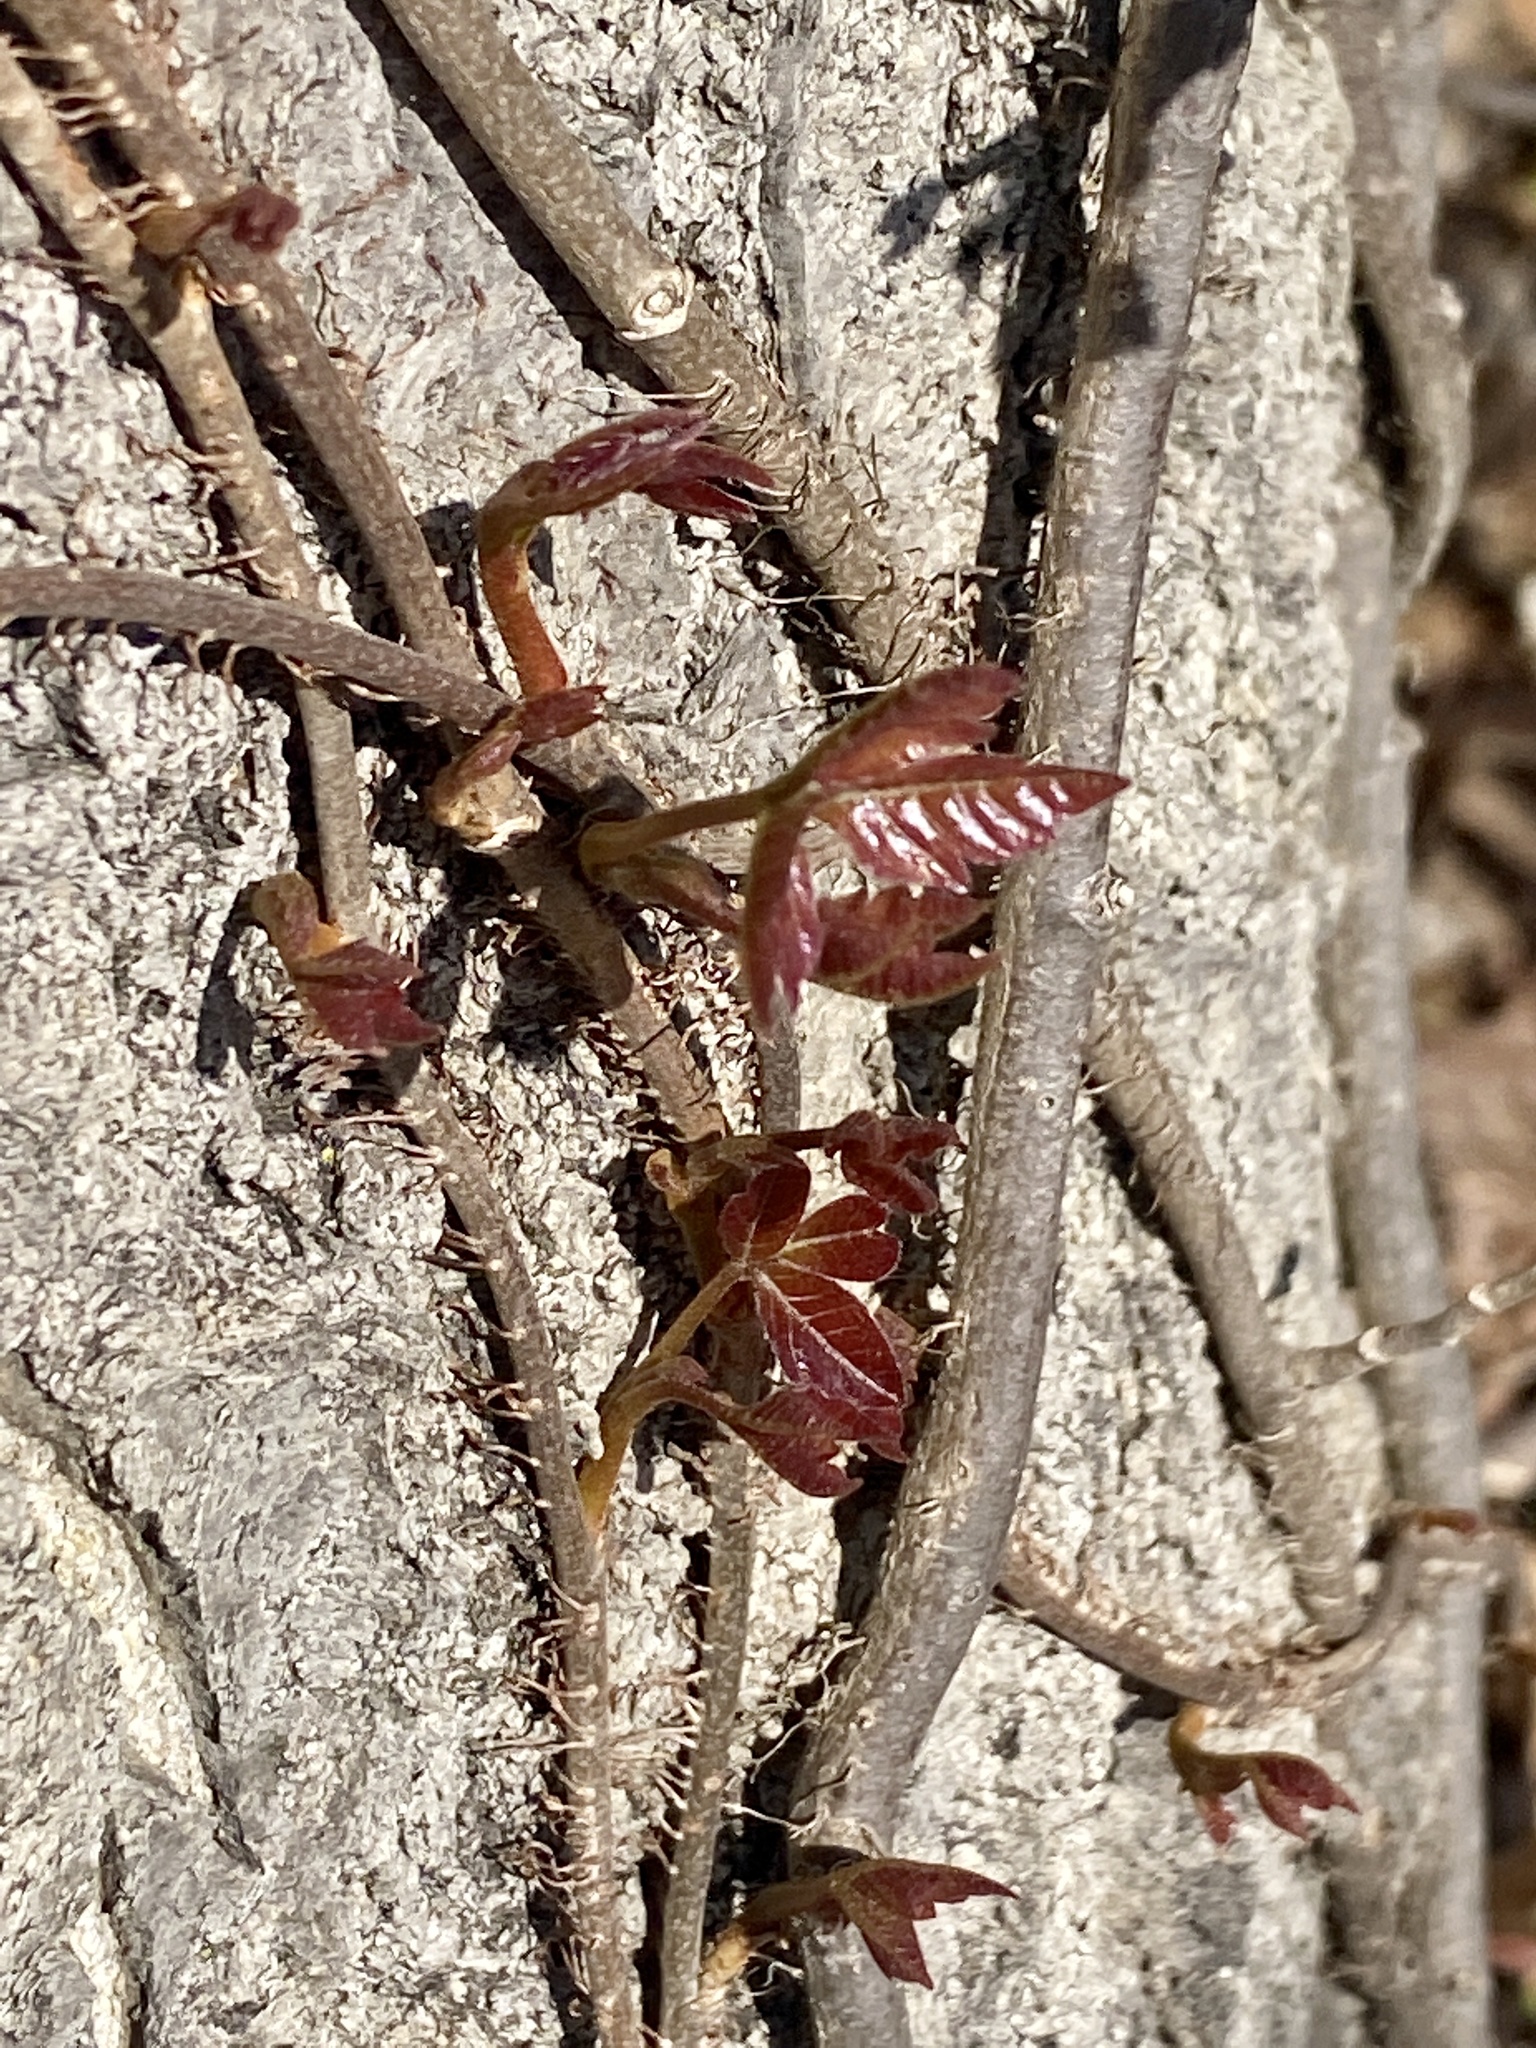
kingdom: Plantae
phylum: Tracheophyta
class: Magnoliopsida
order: Sapindales
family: Anacardiaceae
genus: Toxicodendron
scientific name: Toxicodendron radicans
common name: Poison ivy
